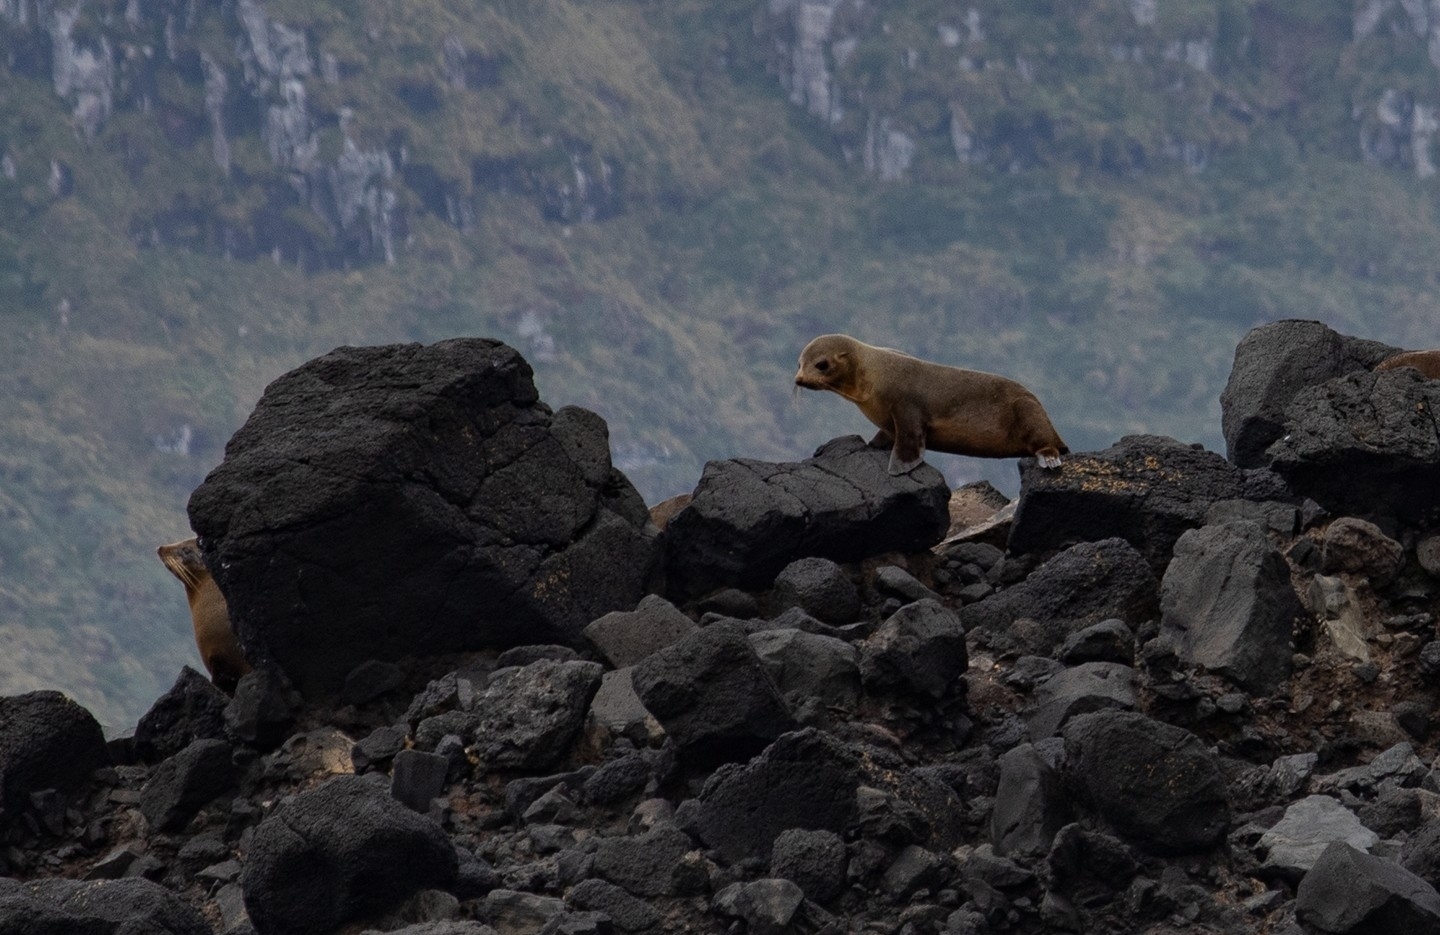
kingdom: Animalia
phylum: Chordata
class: Mammalia
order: Carnivora
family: Otariidae
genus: Arctocephalus
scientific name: Arctocephalus forsteri
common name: New zealand fur seal
